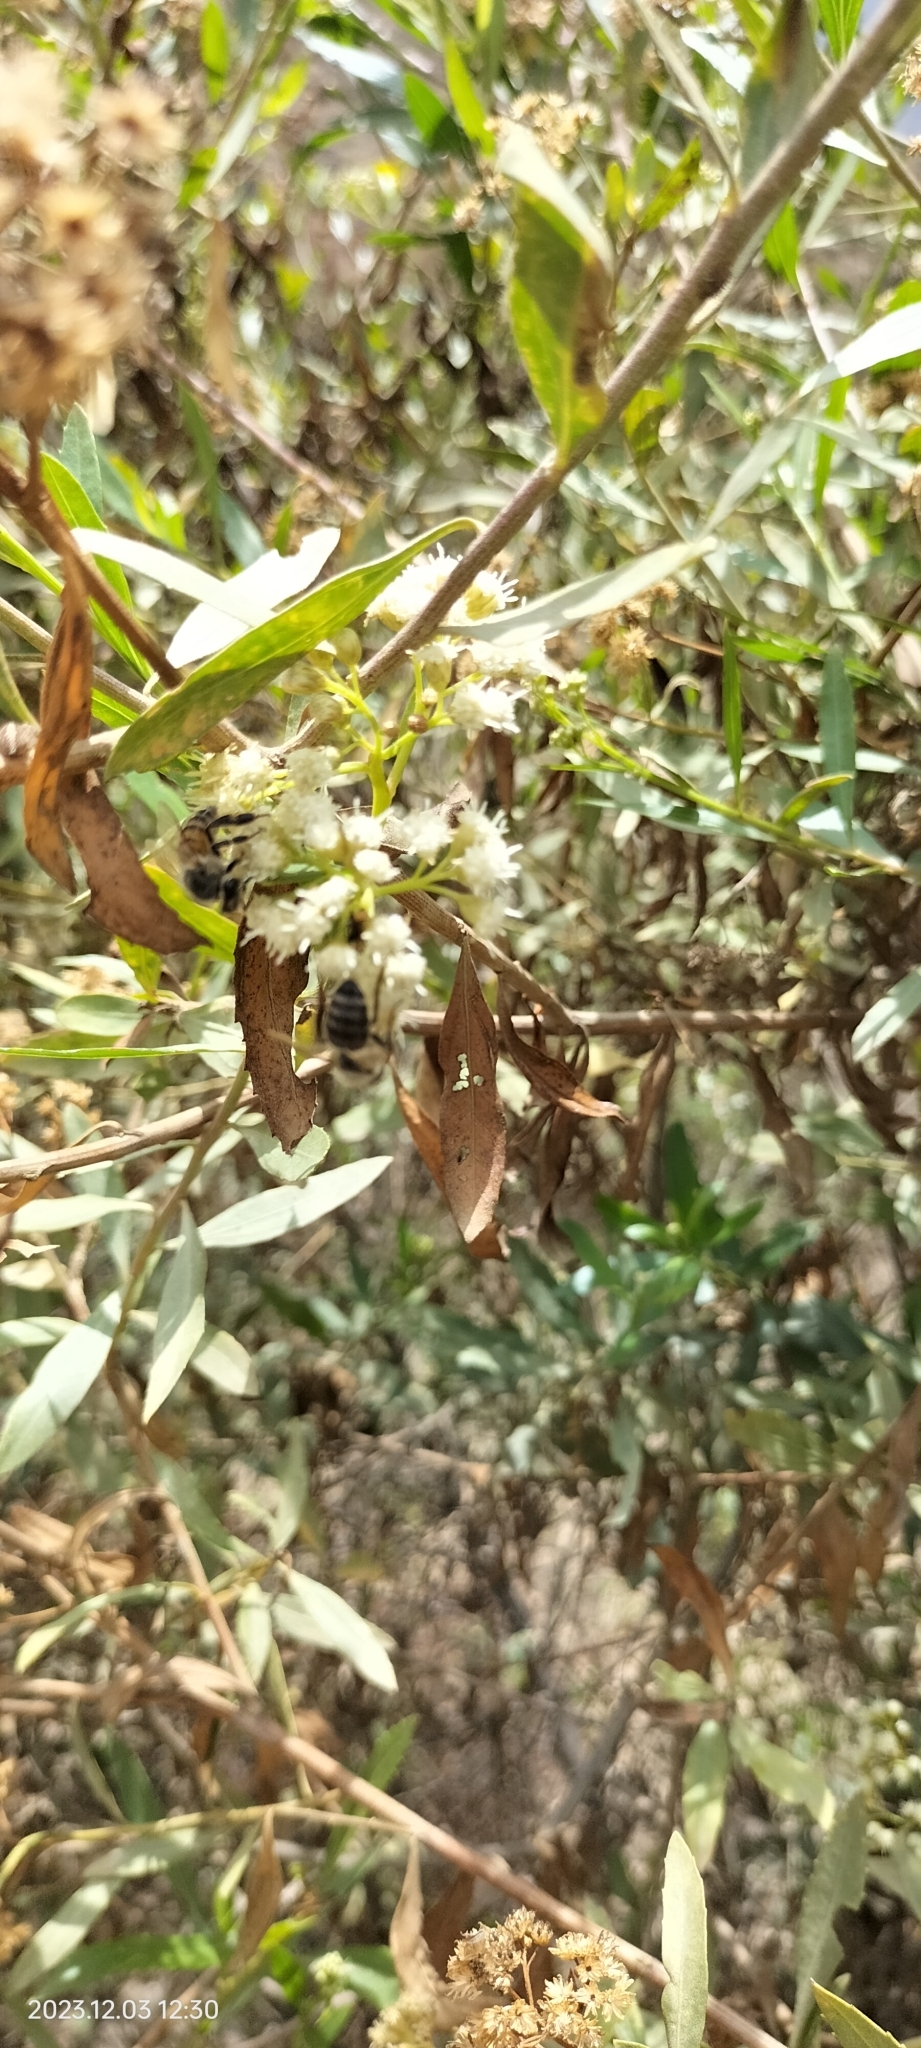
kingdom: Animalia
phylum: Arthropoda
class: Insecta
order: Hymenoptera
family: Apidae
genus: Apis
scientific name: Apis mellifera
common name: Honey bee
